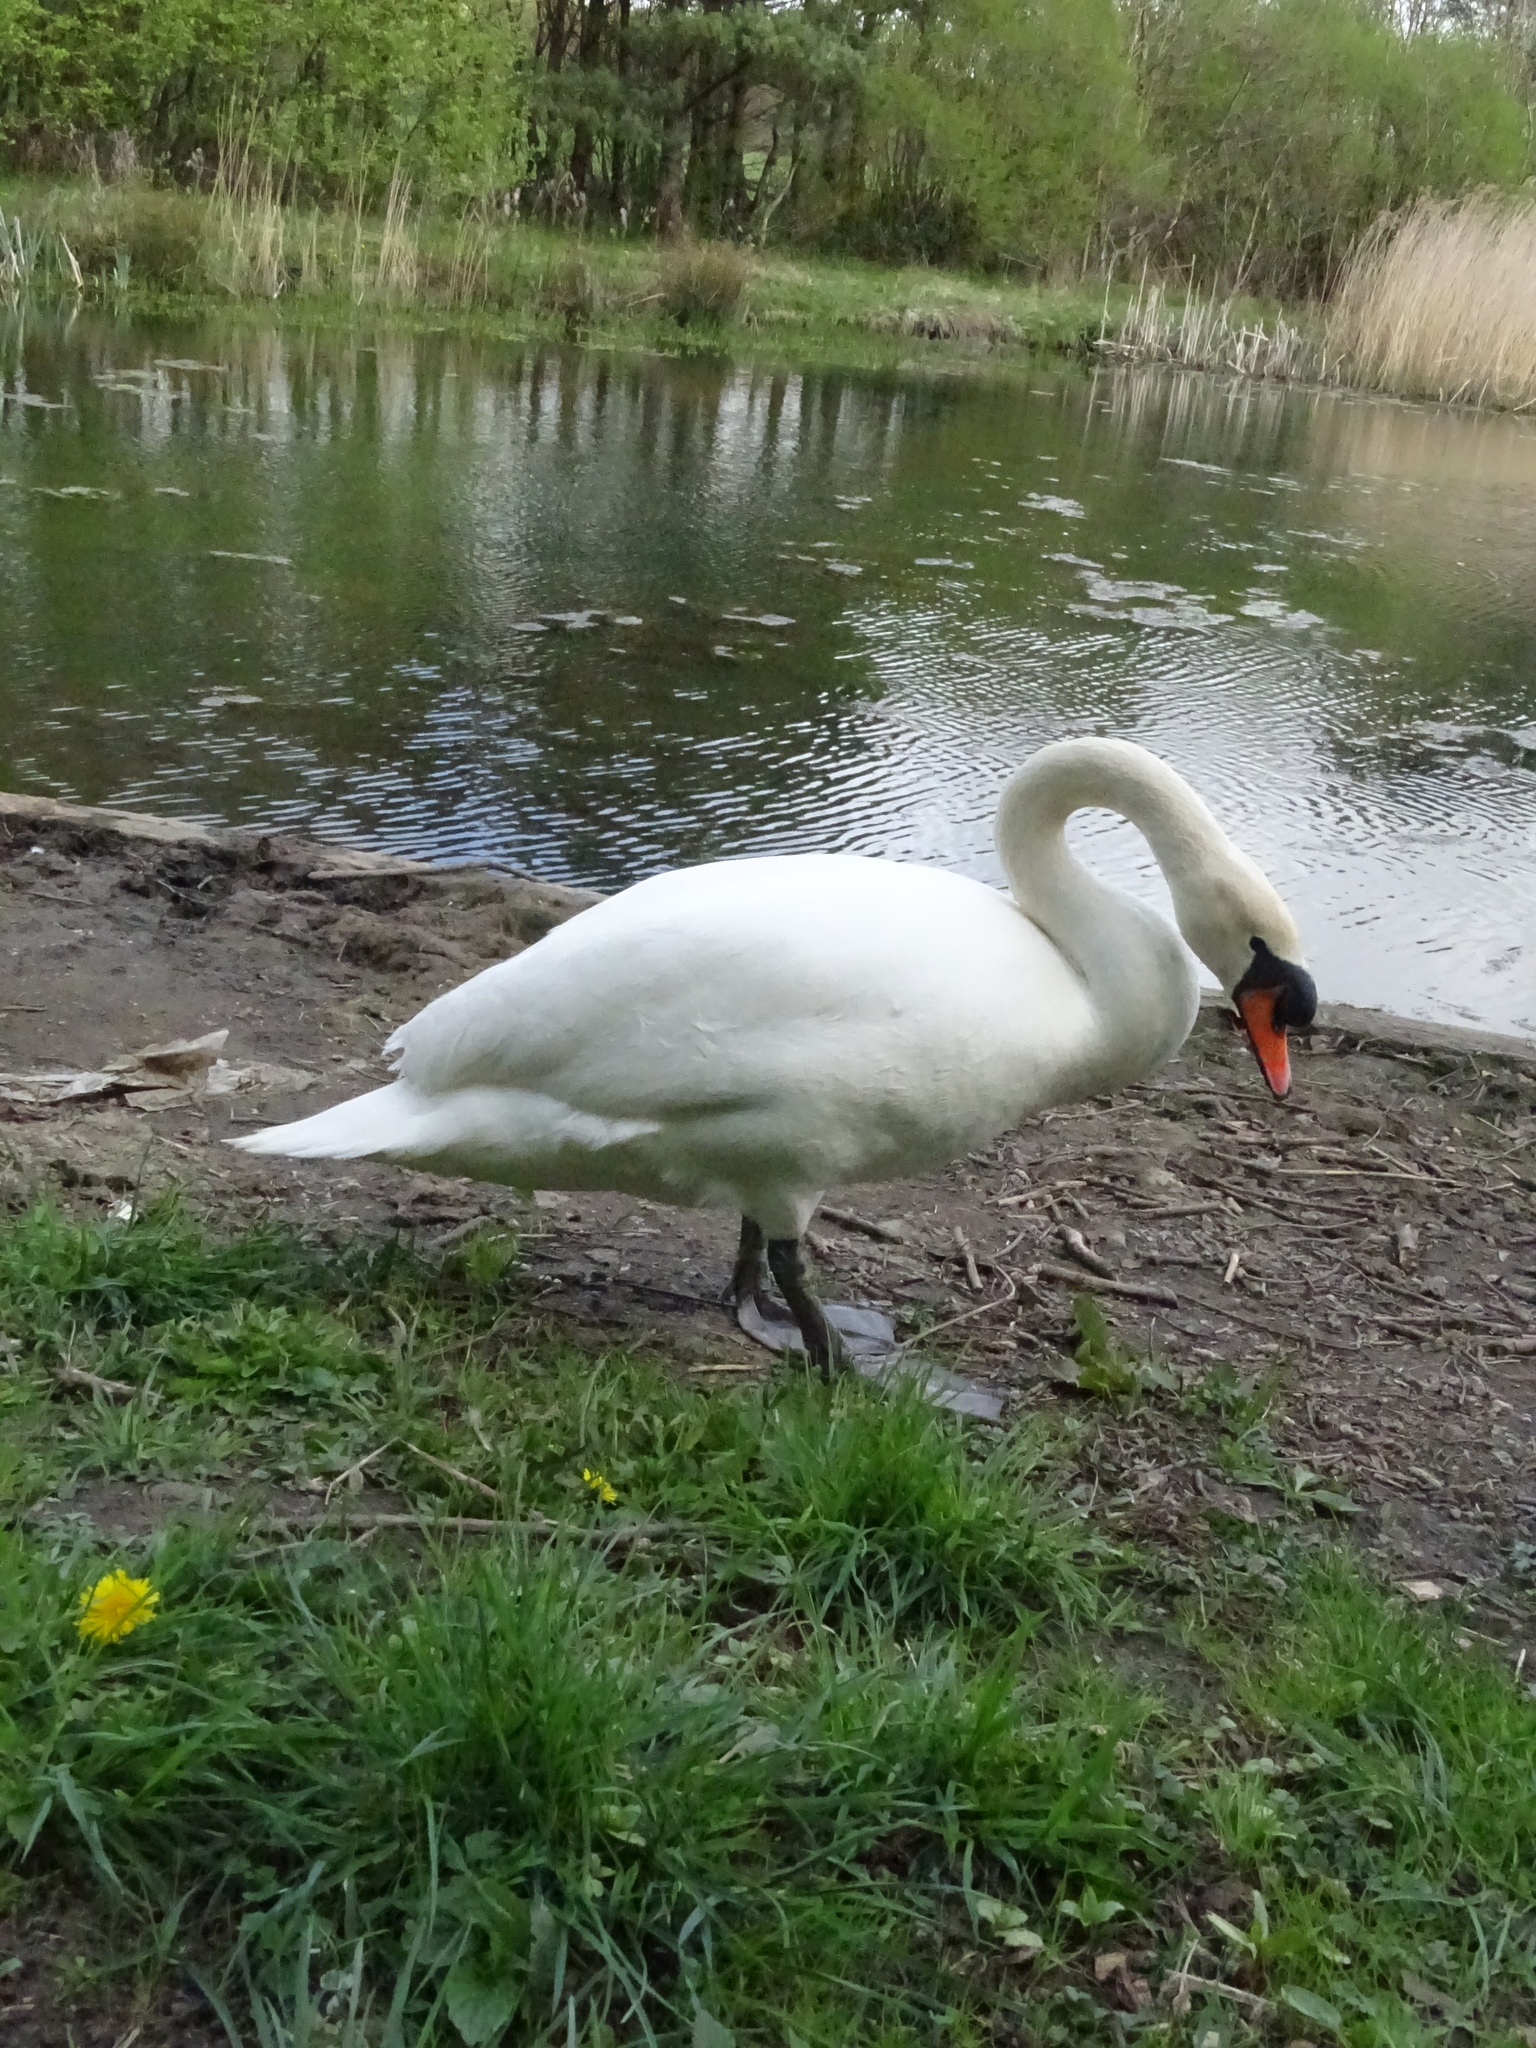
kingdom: Animalia
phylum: Chordata
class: Aves
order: Anseriformes
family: Anatidae
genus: Cygnus
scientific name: Cygnus olor
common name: Mute swan
